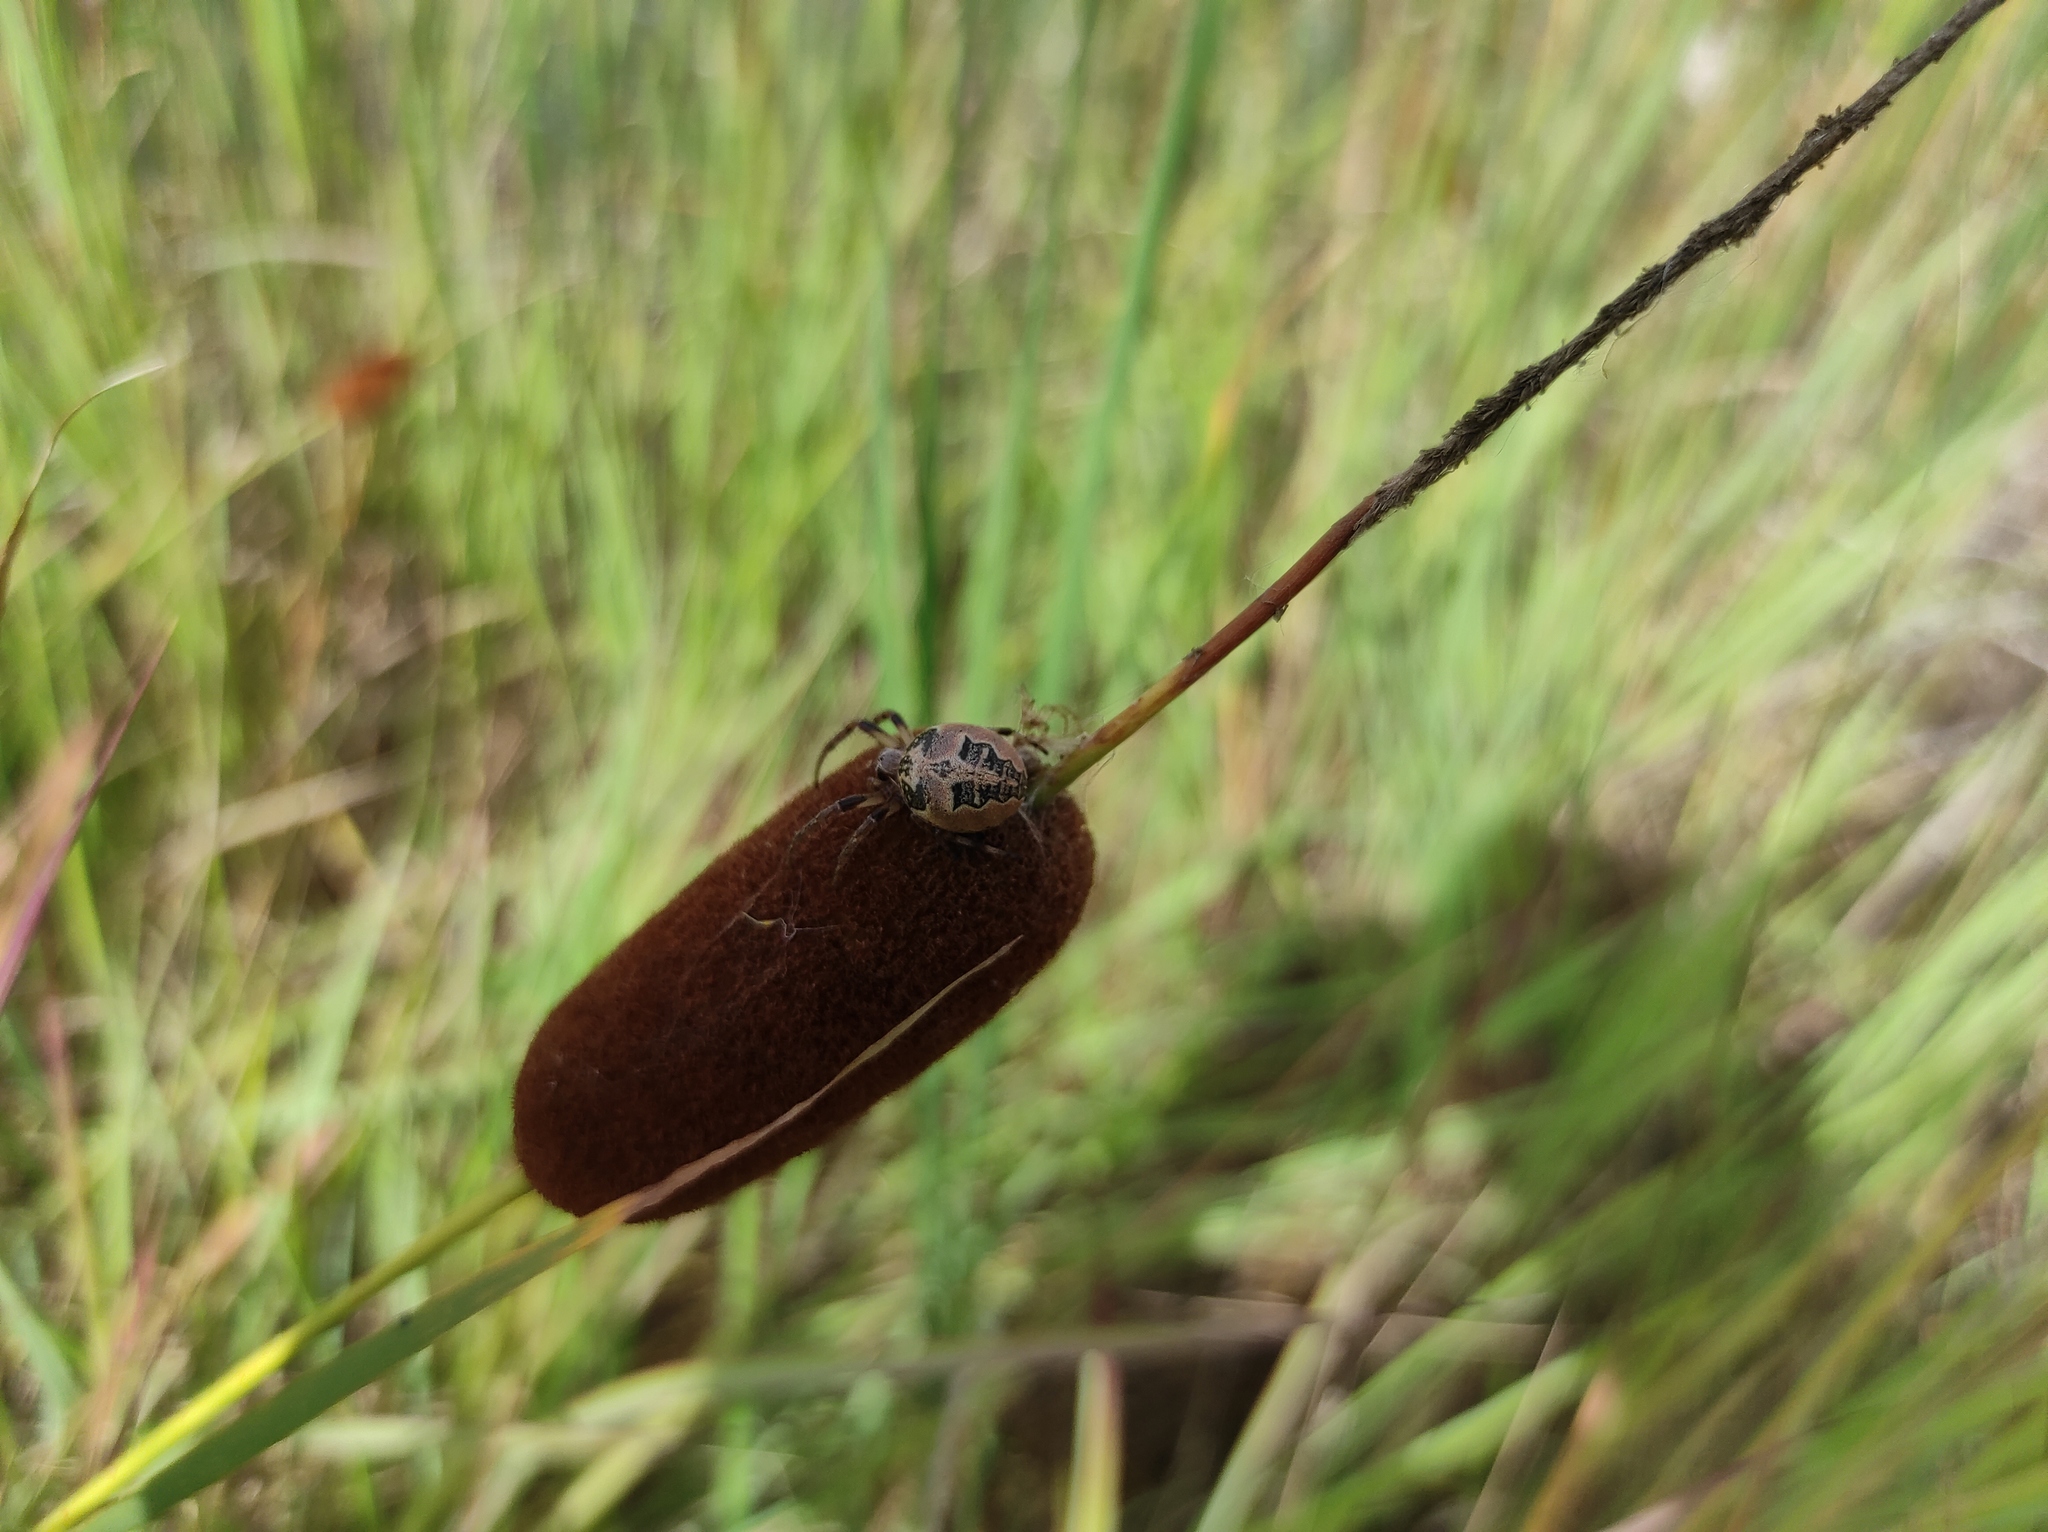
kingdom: Plantae
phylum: Tracheophyta
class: Liliopsida
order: Poales
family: Typhaceae
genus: Typha
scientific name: Typha laxmannii
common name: Laxman’s bulrush
